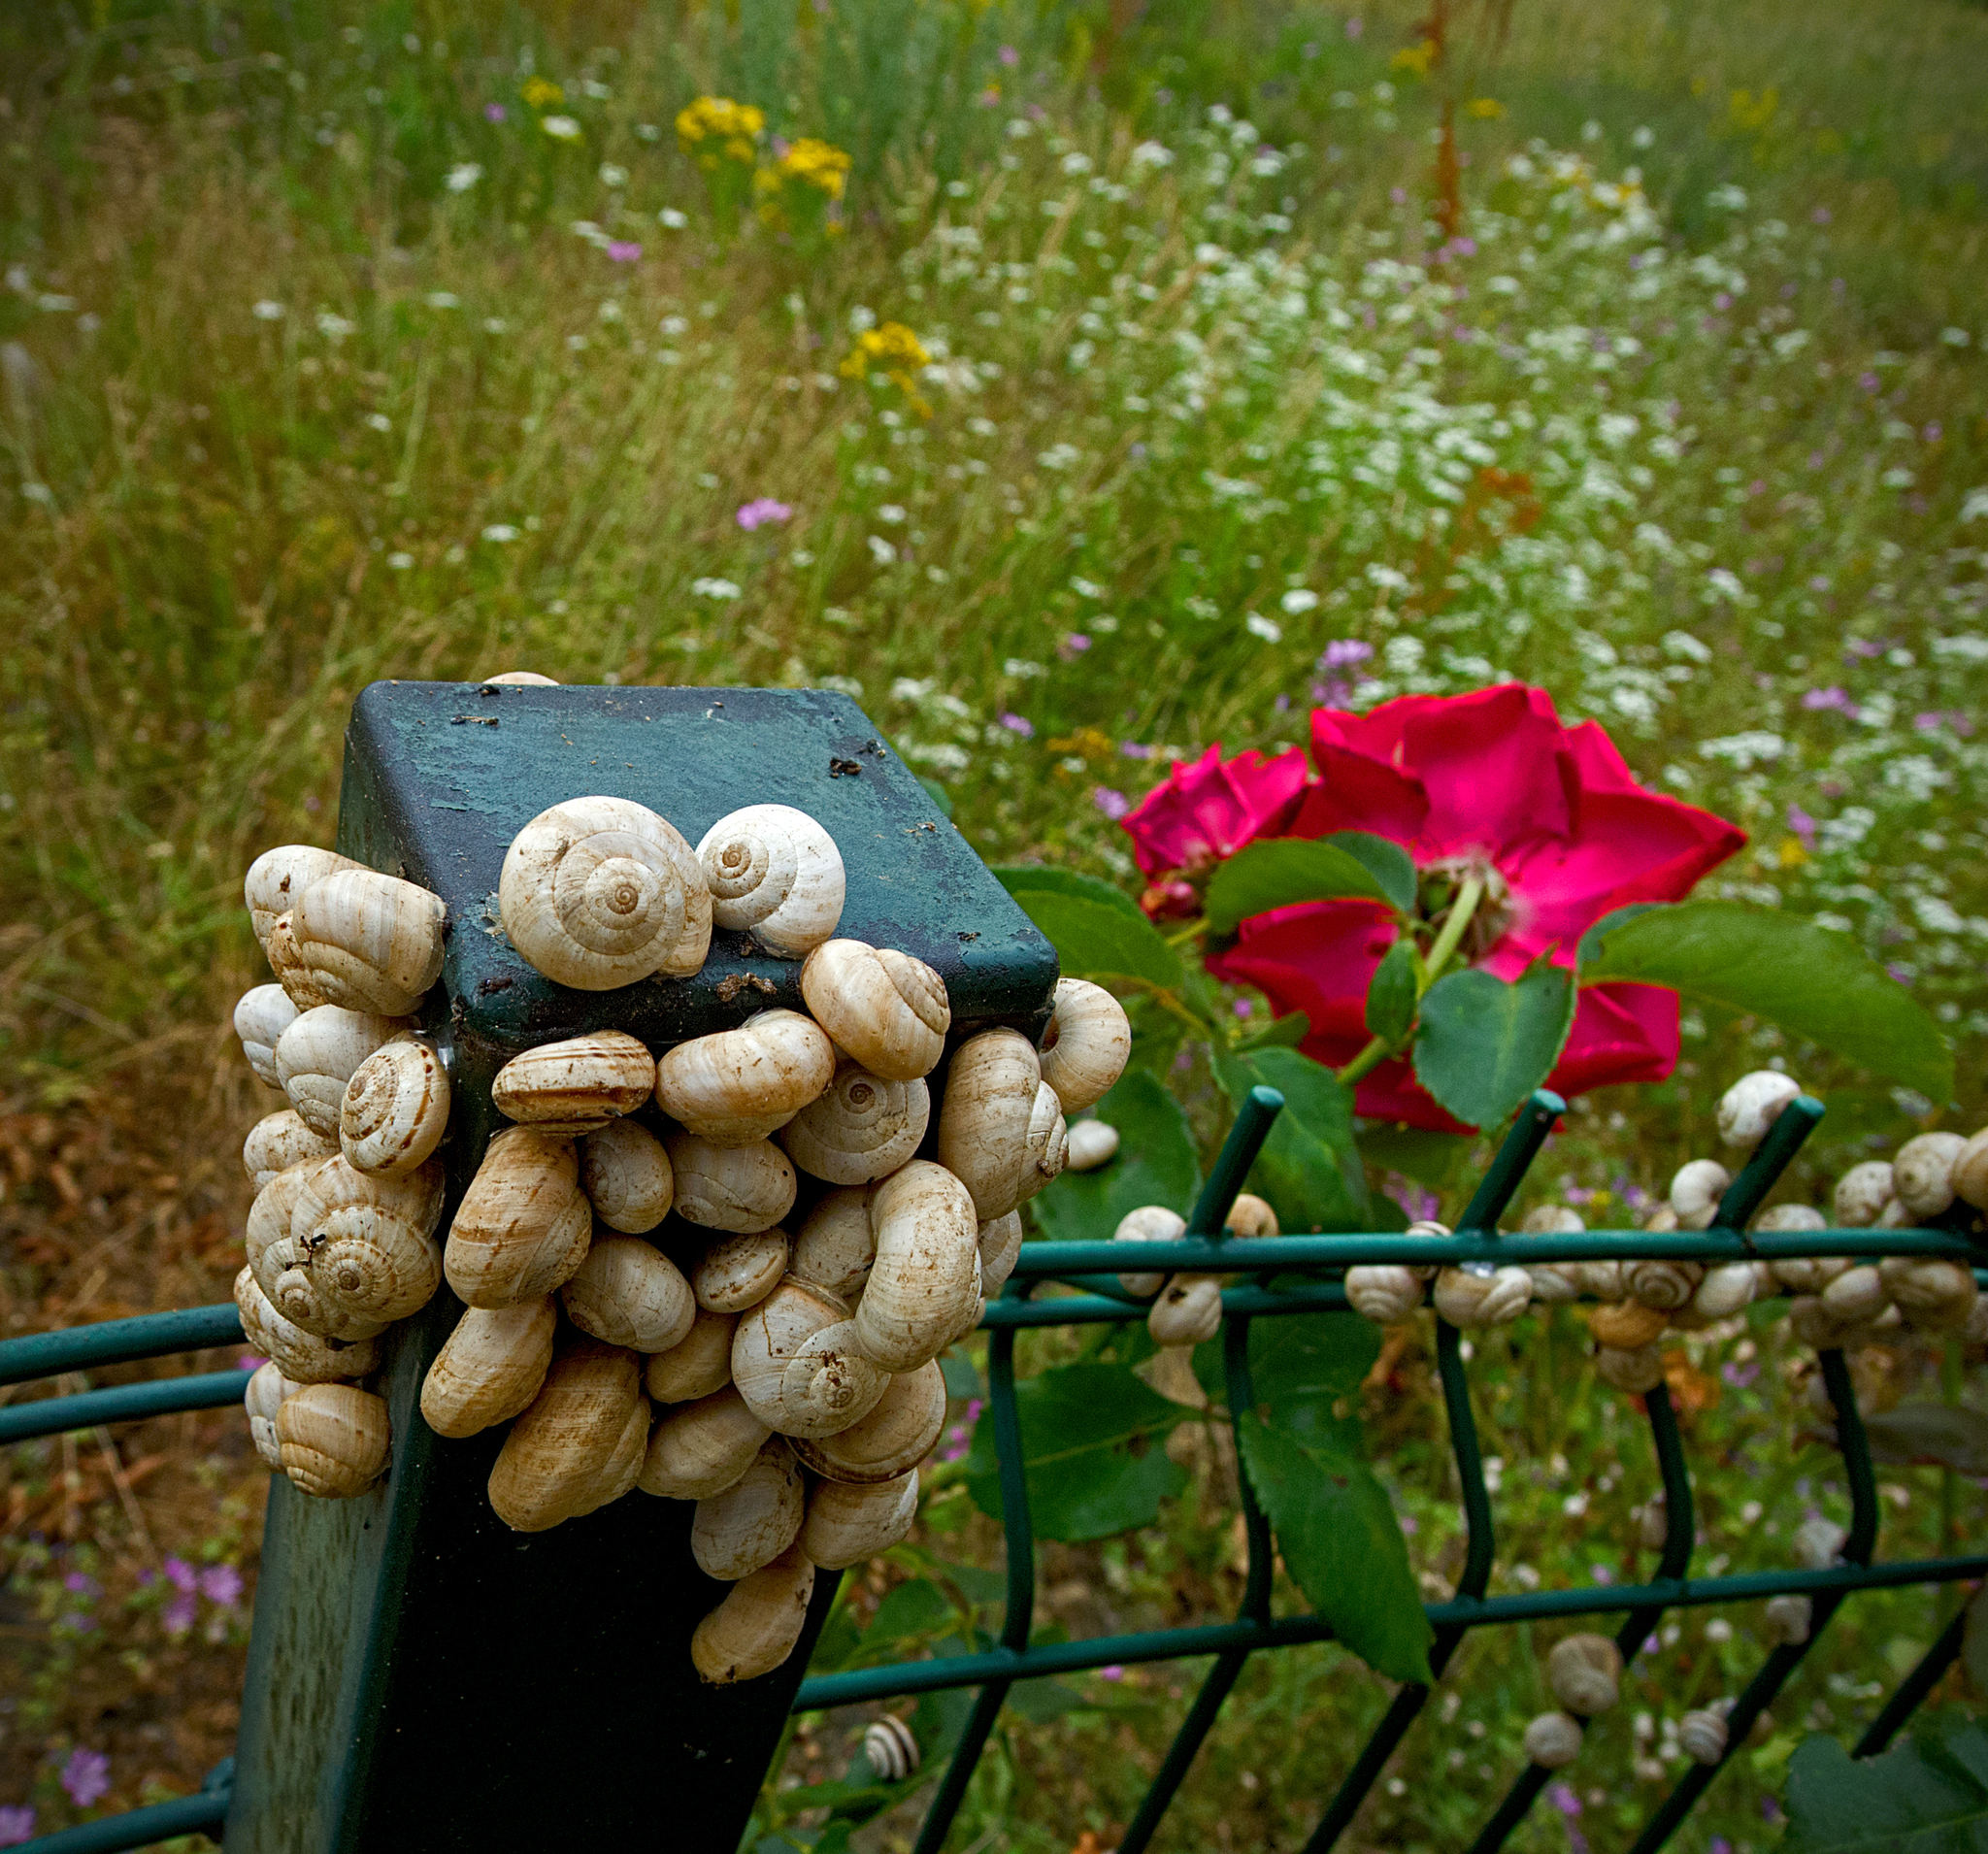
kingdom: Animalia
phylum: Mollusca
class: Gastropoda
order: Stylommatophora
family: Helicidae
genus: Theba
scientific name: Theba pisana
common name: White snail
